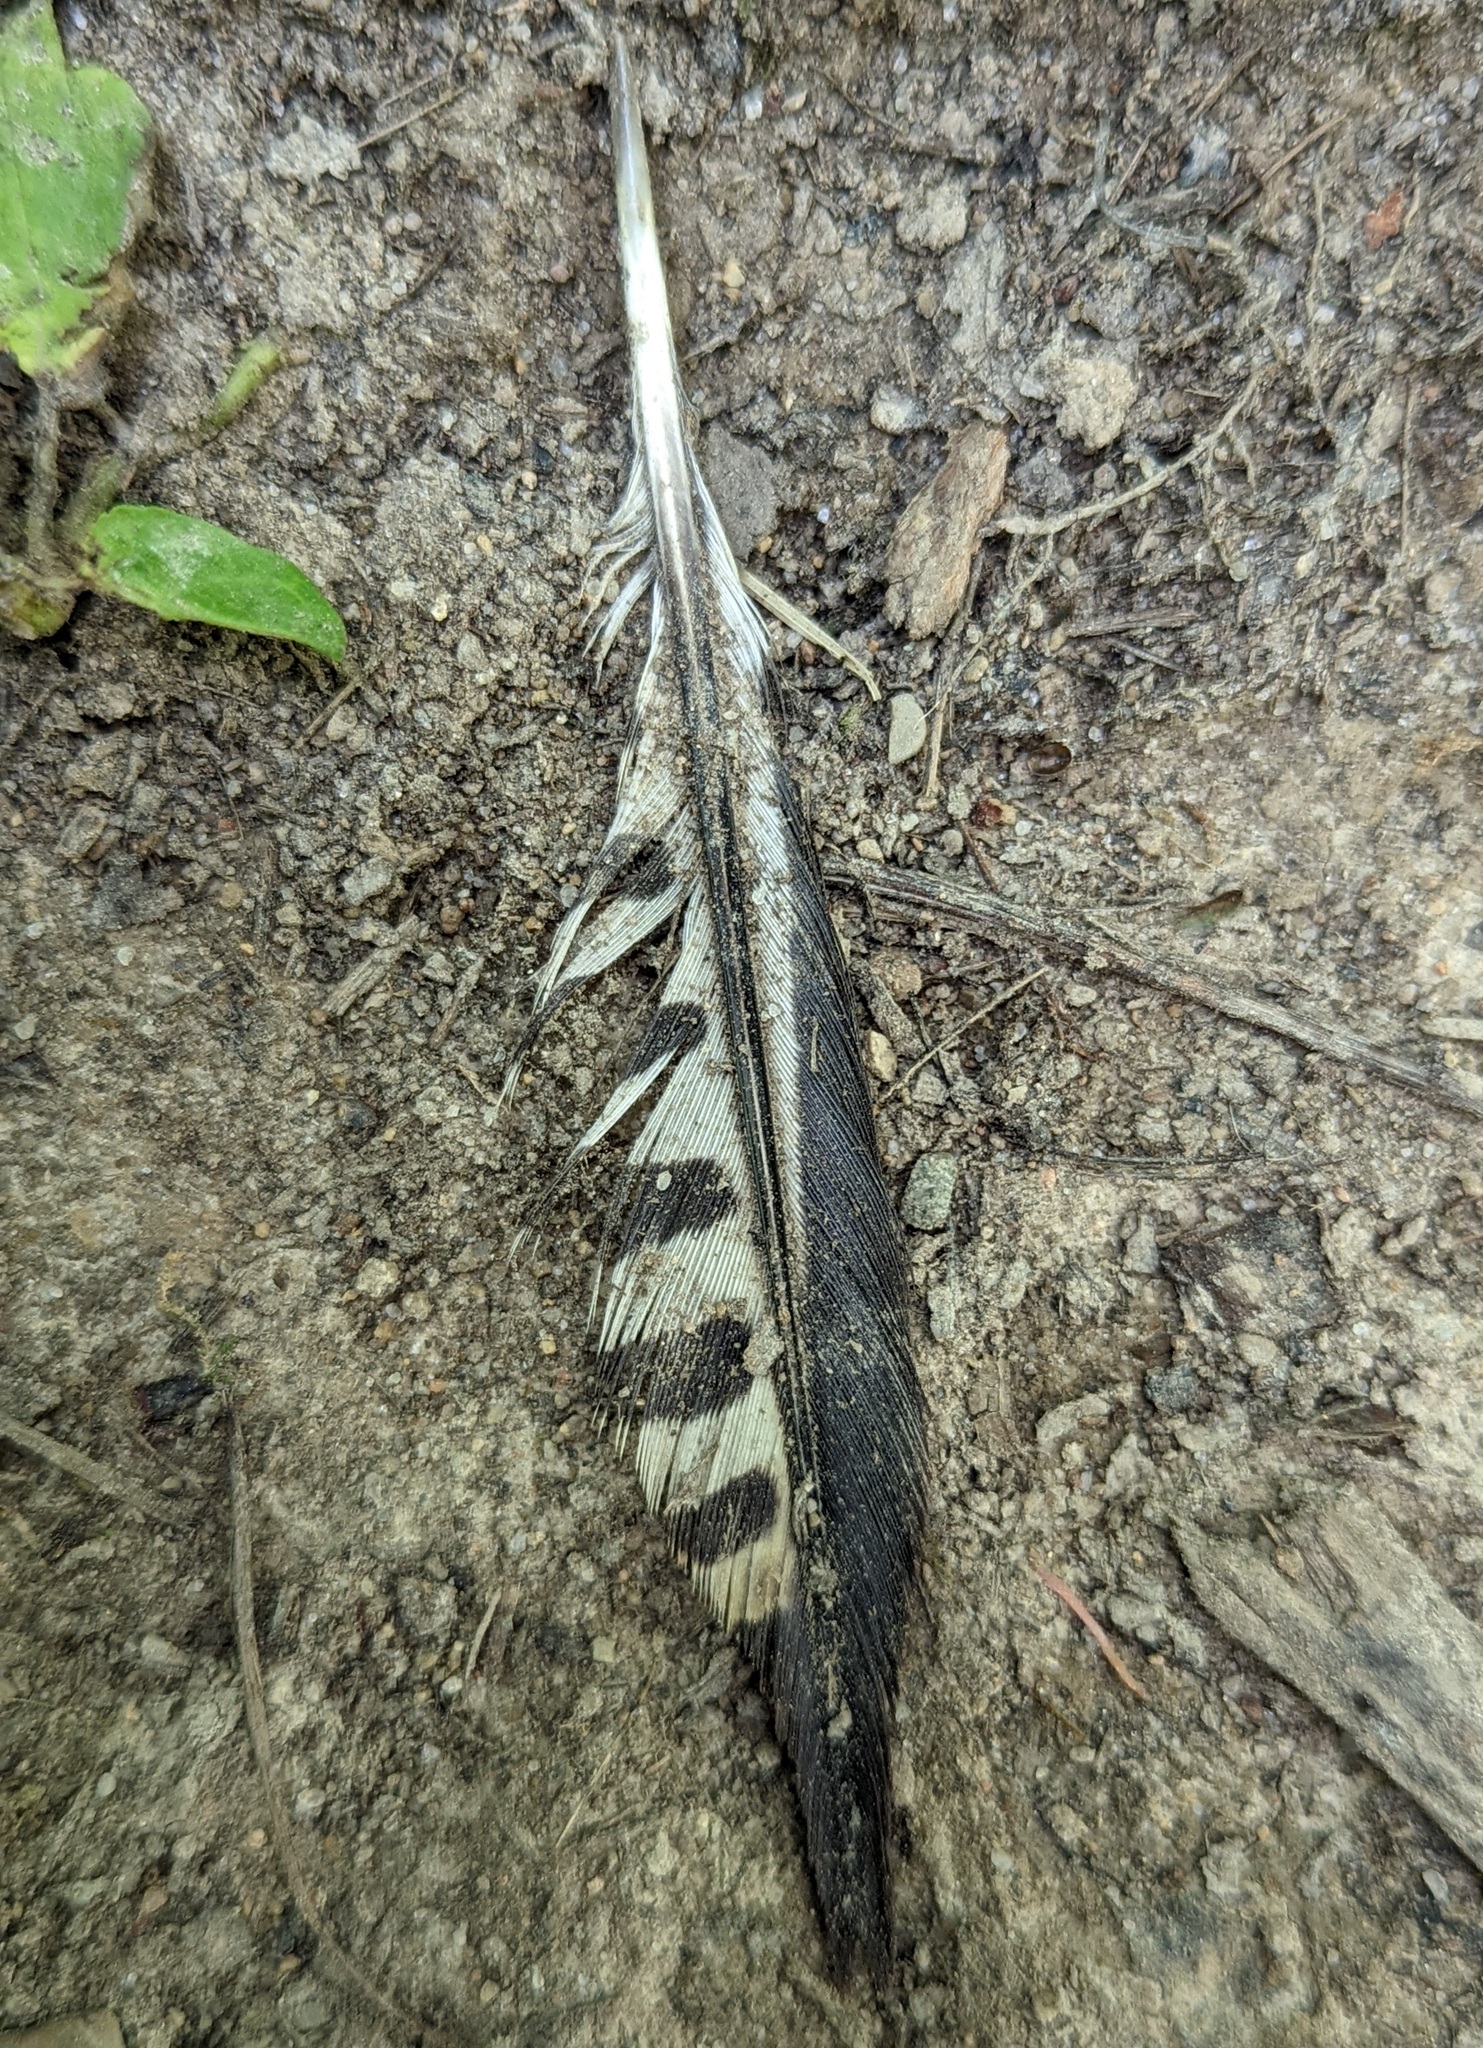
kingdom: Animalia
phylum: Chordata
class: Aves
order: Piciformes
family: Picidae
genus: Melanerpes
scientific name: Melanerpes carolinus
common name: Red-bellied woodpecker
